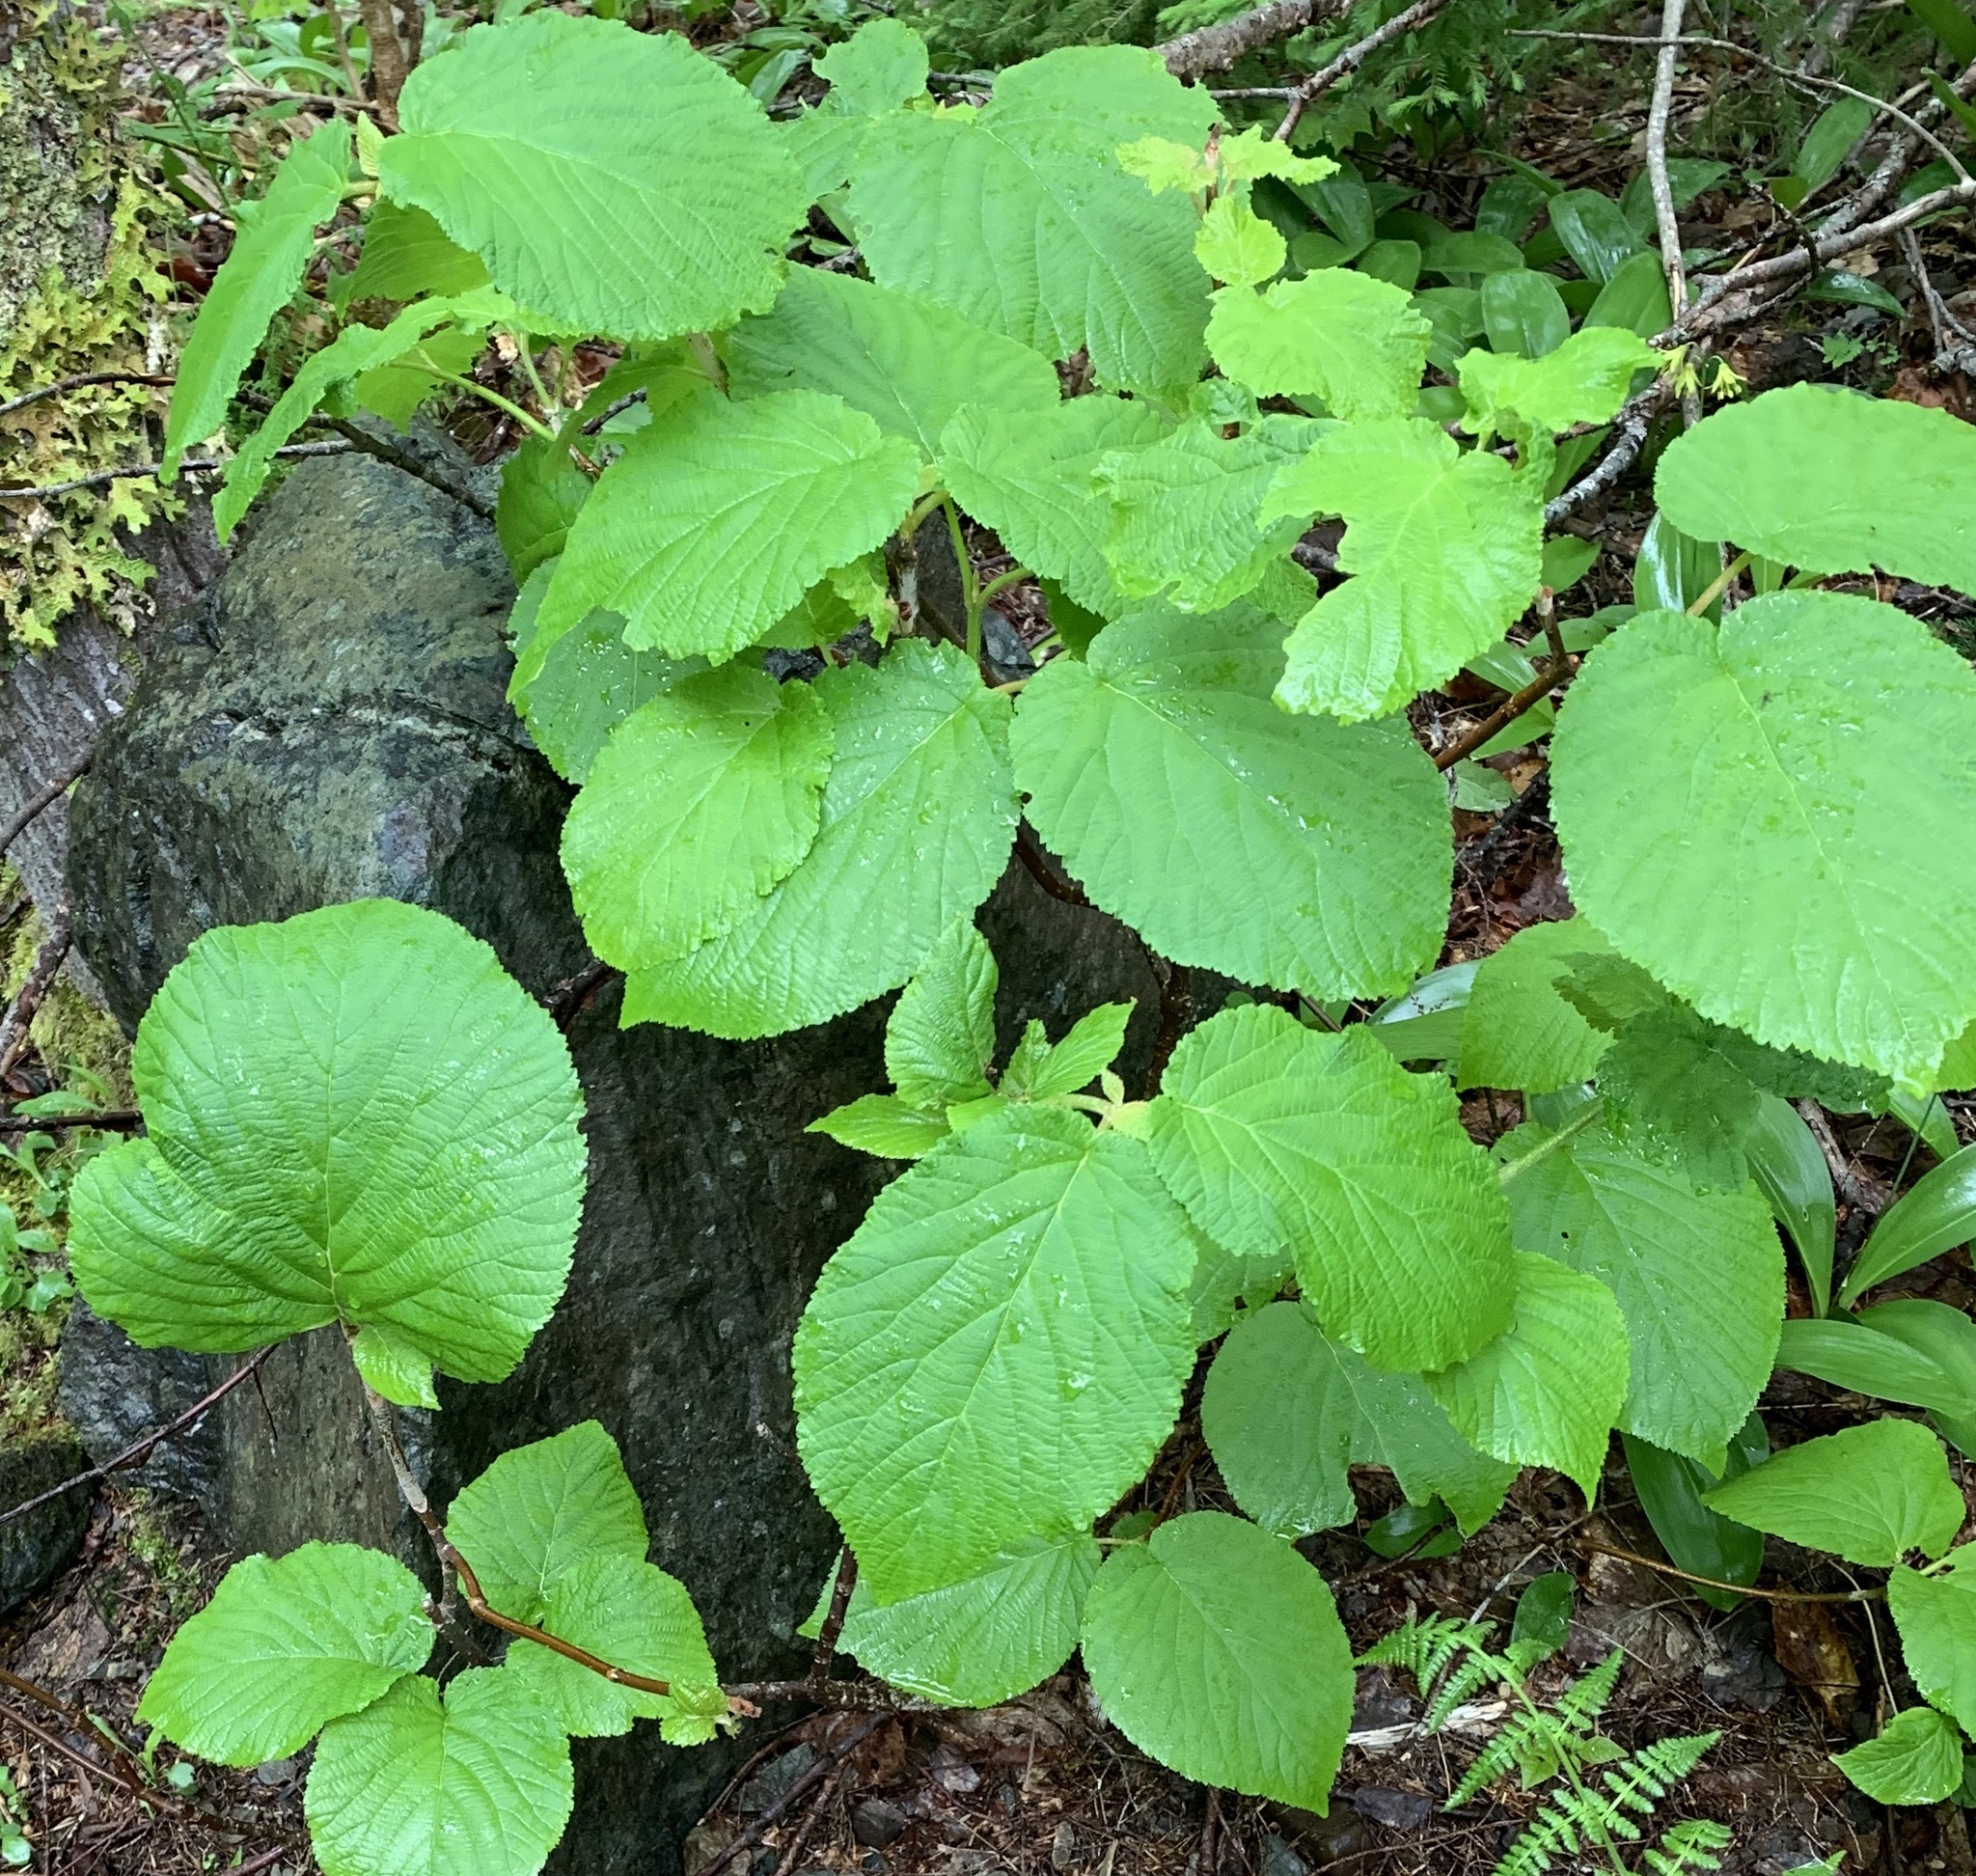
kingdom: Plantae
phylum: Tracheophyta
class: Magnoliopsida
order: Dipsacales
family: Viburnaceae
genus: Viburnum
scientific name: Viburnum lantanoides
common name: Hobblebush
